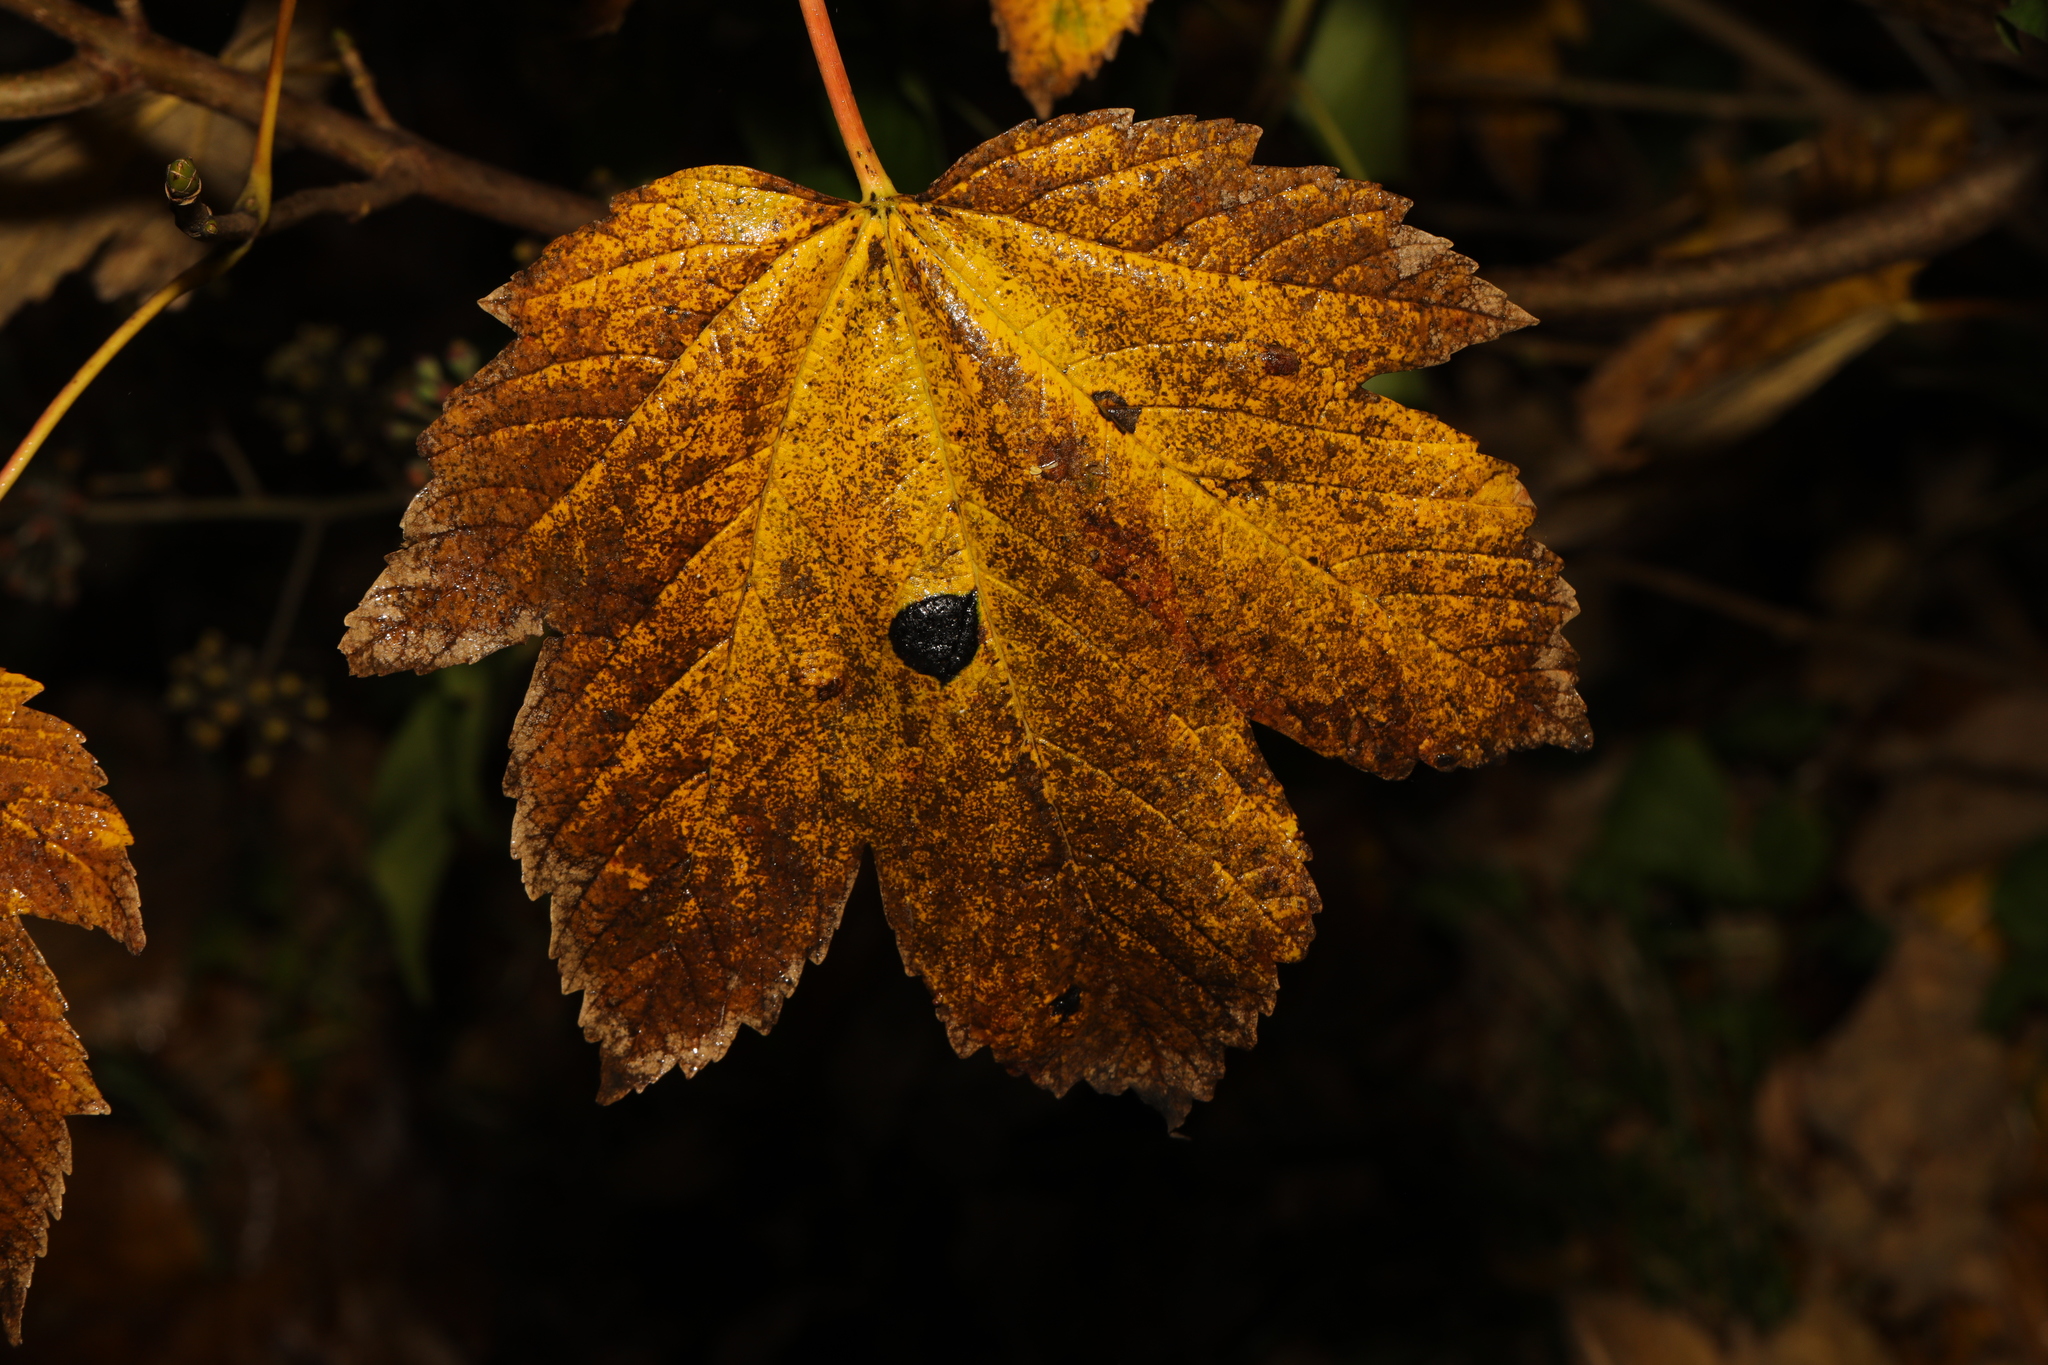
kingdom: Plantae
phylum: Tracheophyta
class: Magnoliopsida
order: Sapindales
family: Sapindaceae
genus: Acer
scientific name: Acer pseudoplatanus
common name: Sycamore
